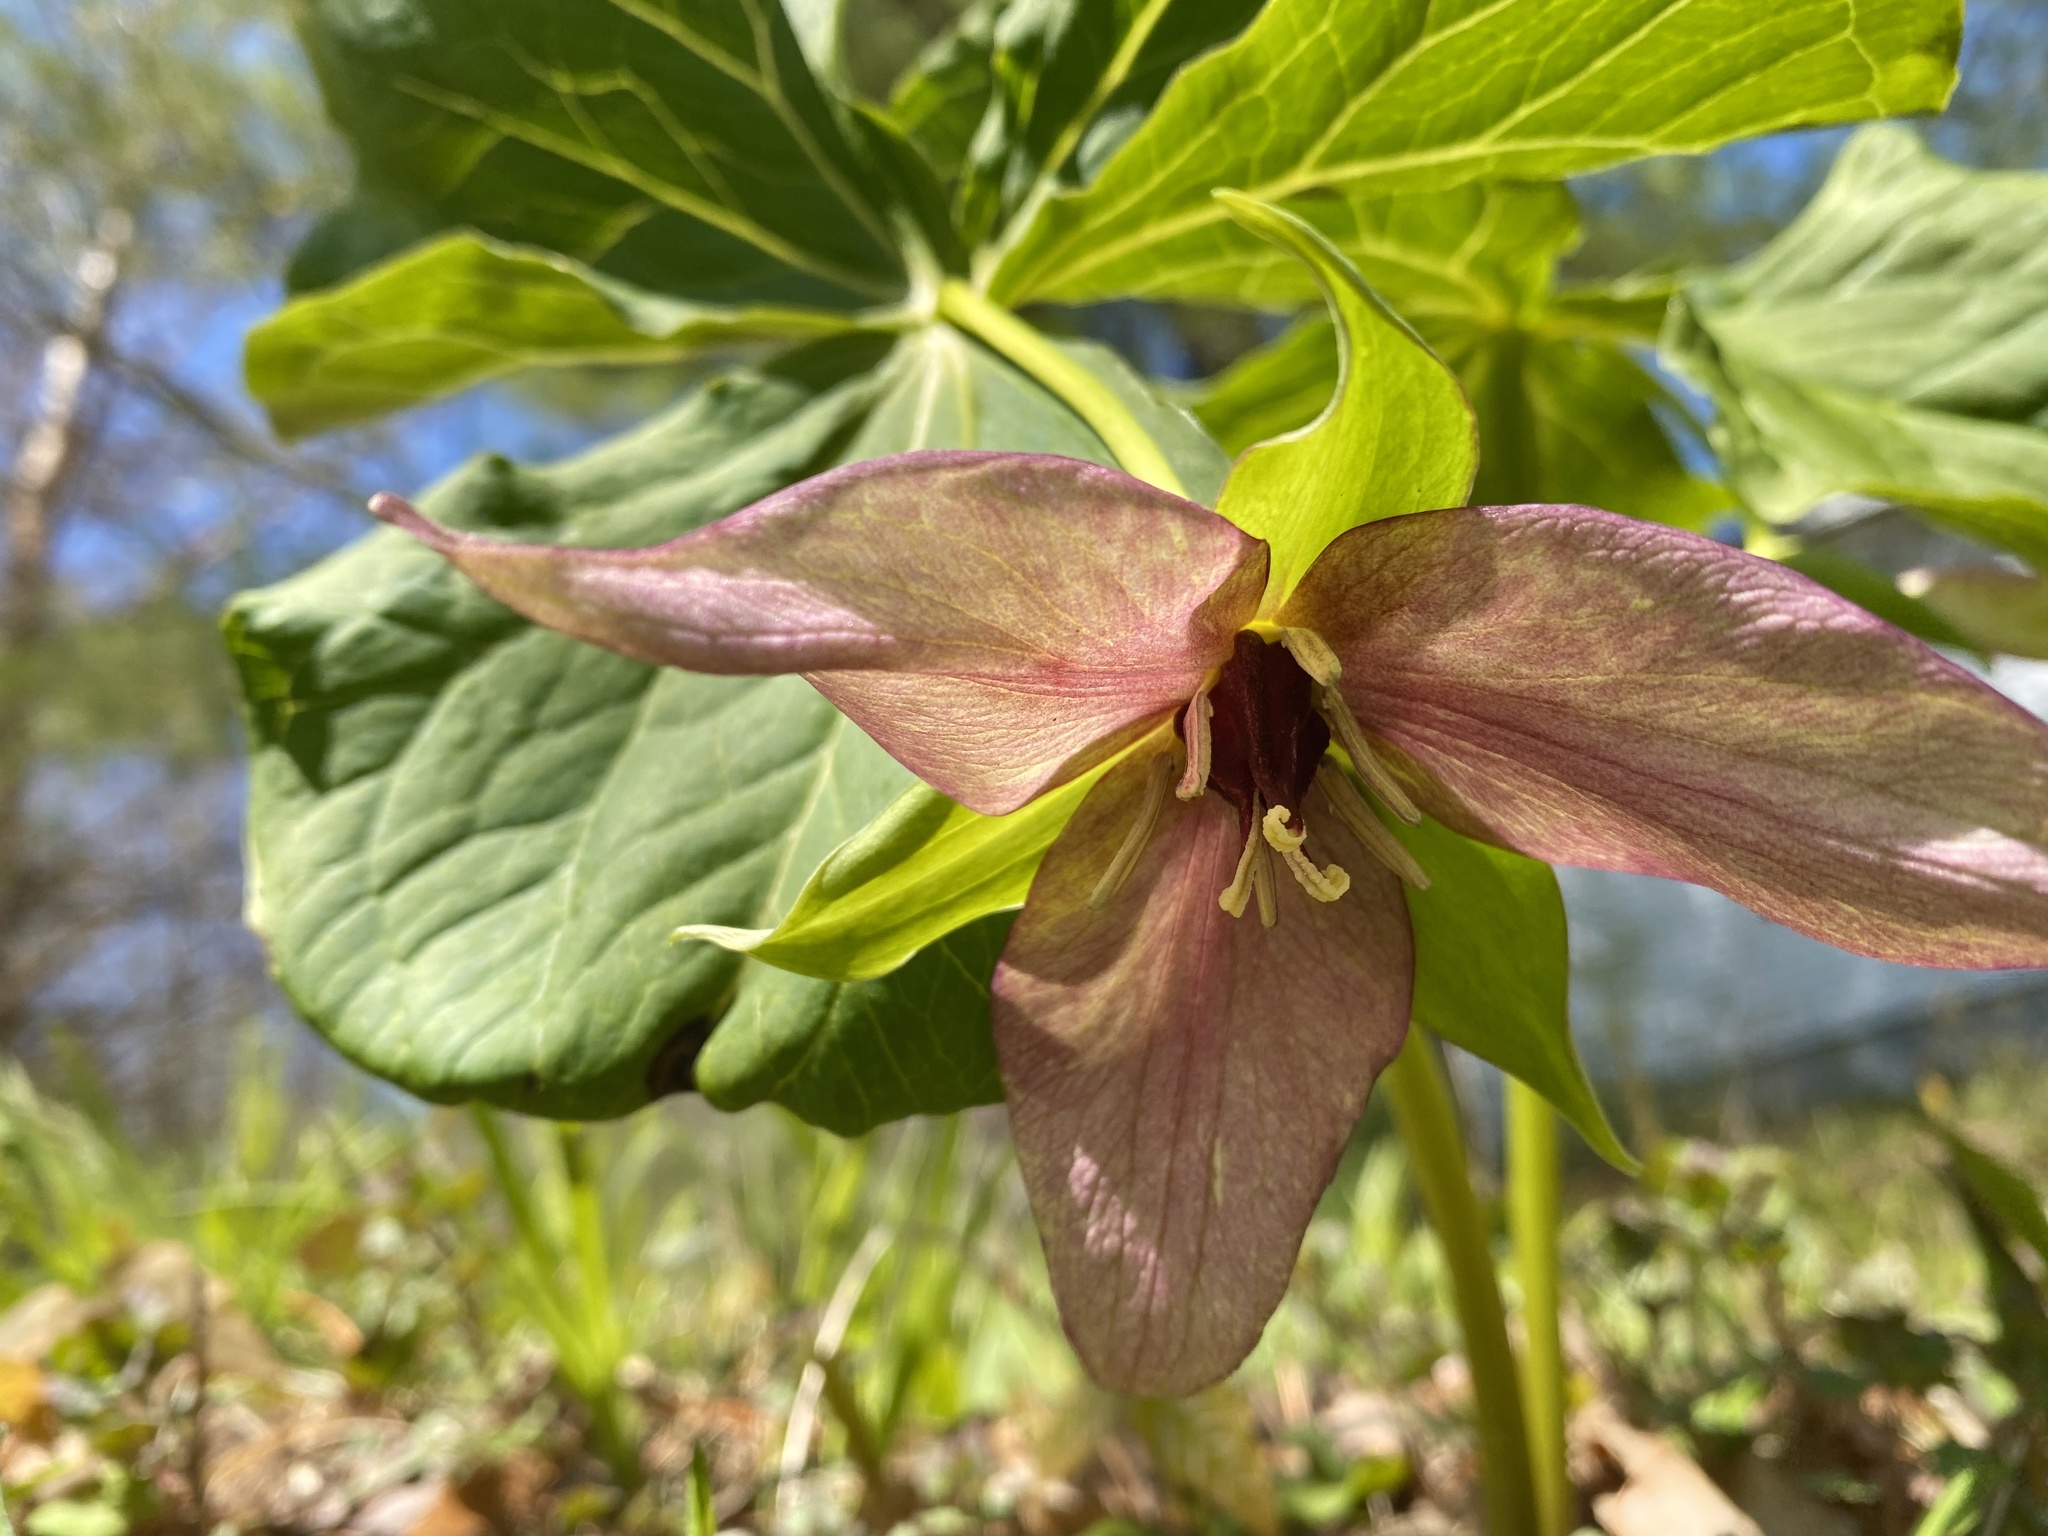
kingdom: Plantae
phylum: Tracheophyta
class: Liliopsida
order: Liliales
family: Melanthiaceae
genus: Trillium
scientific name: Trillium erectum
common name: Purple trillium
